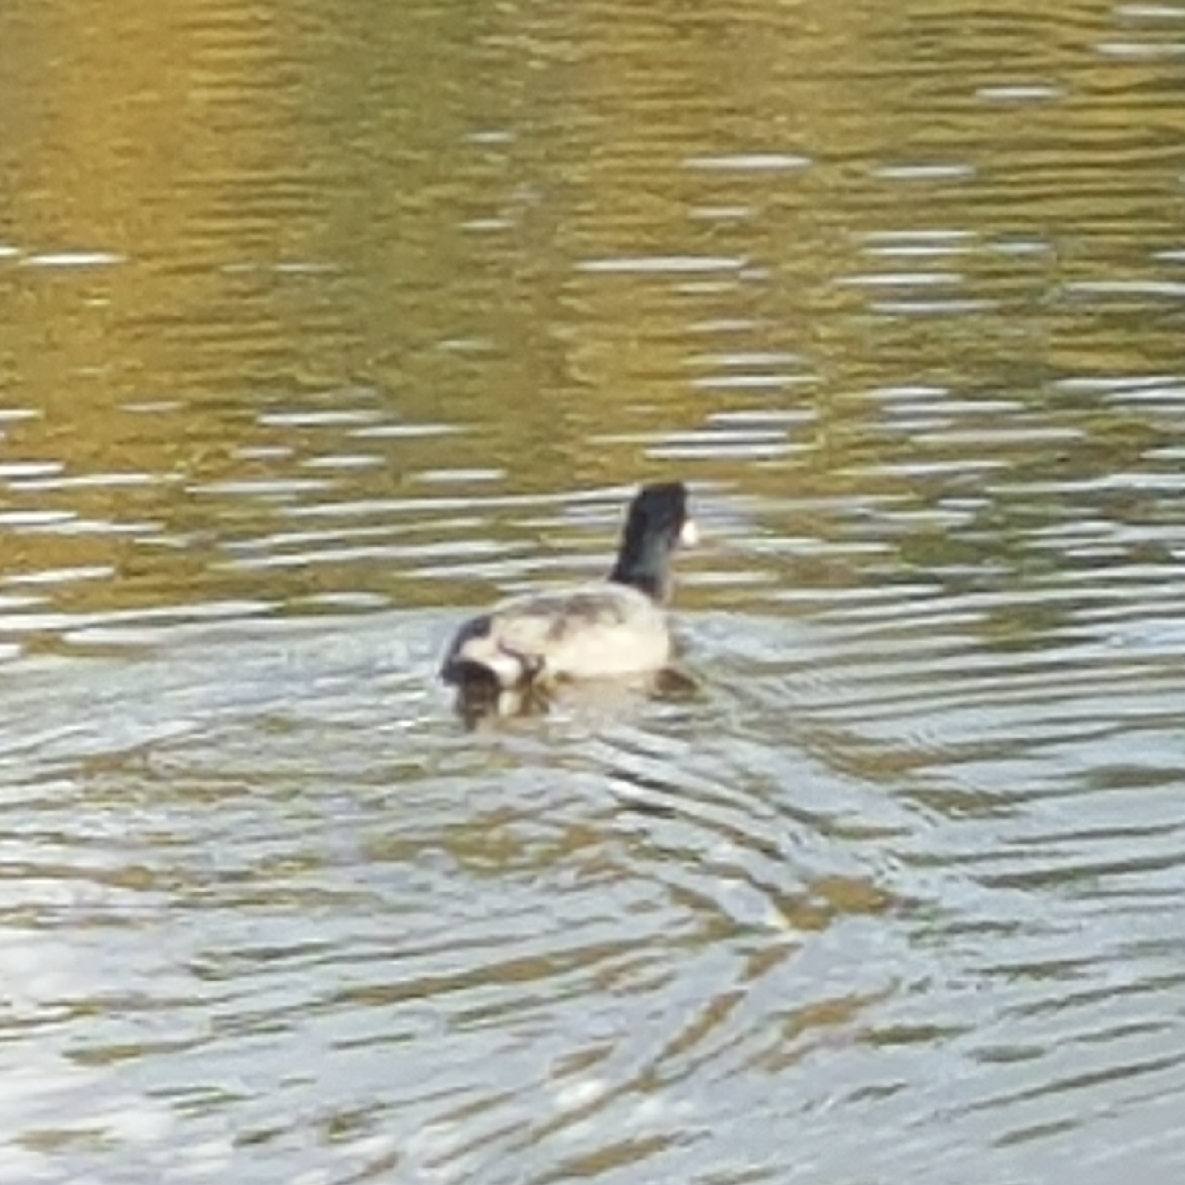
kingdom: Animalia
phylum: Chordata
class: Aves
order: Gruiformes
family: Rallidae
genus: Fulica
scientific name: Fulica americana
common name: American coot
